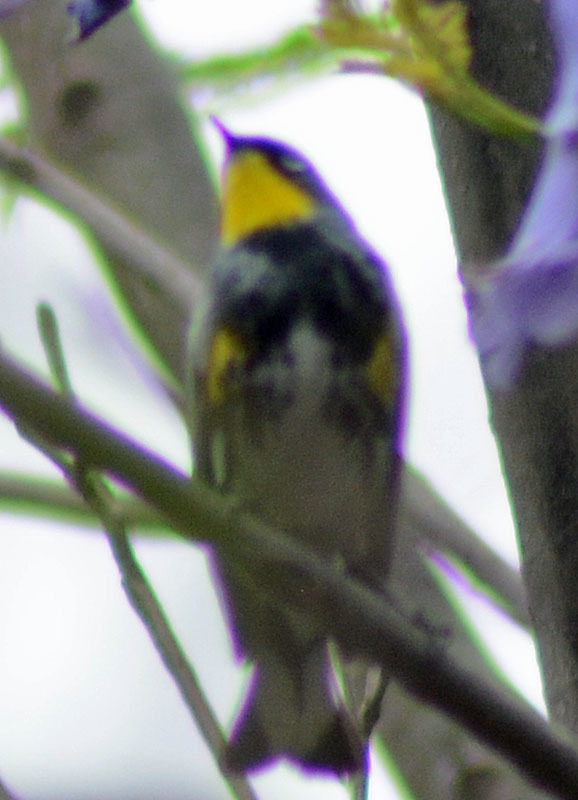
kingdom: Animalia
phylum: Chordata
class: Aves
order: Passeriformes
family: Parulidae
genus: Setophaga
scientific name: Setophaga auduboni
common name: Audubon's warbler
